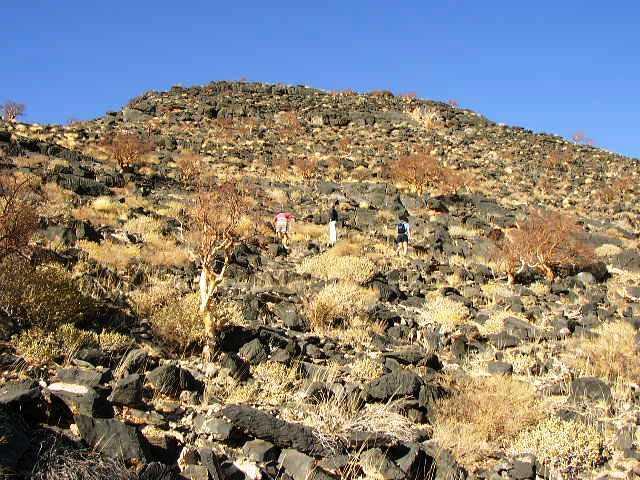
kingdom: Plantae
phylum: Tracheophyta
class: Magnoliopsida
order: Sapindales
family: Burseraceae
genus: Commiphora
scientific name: Commiphora tenuipetiolata
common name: Satin-bark corkwood
